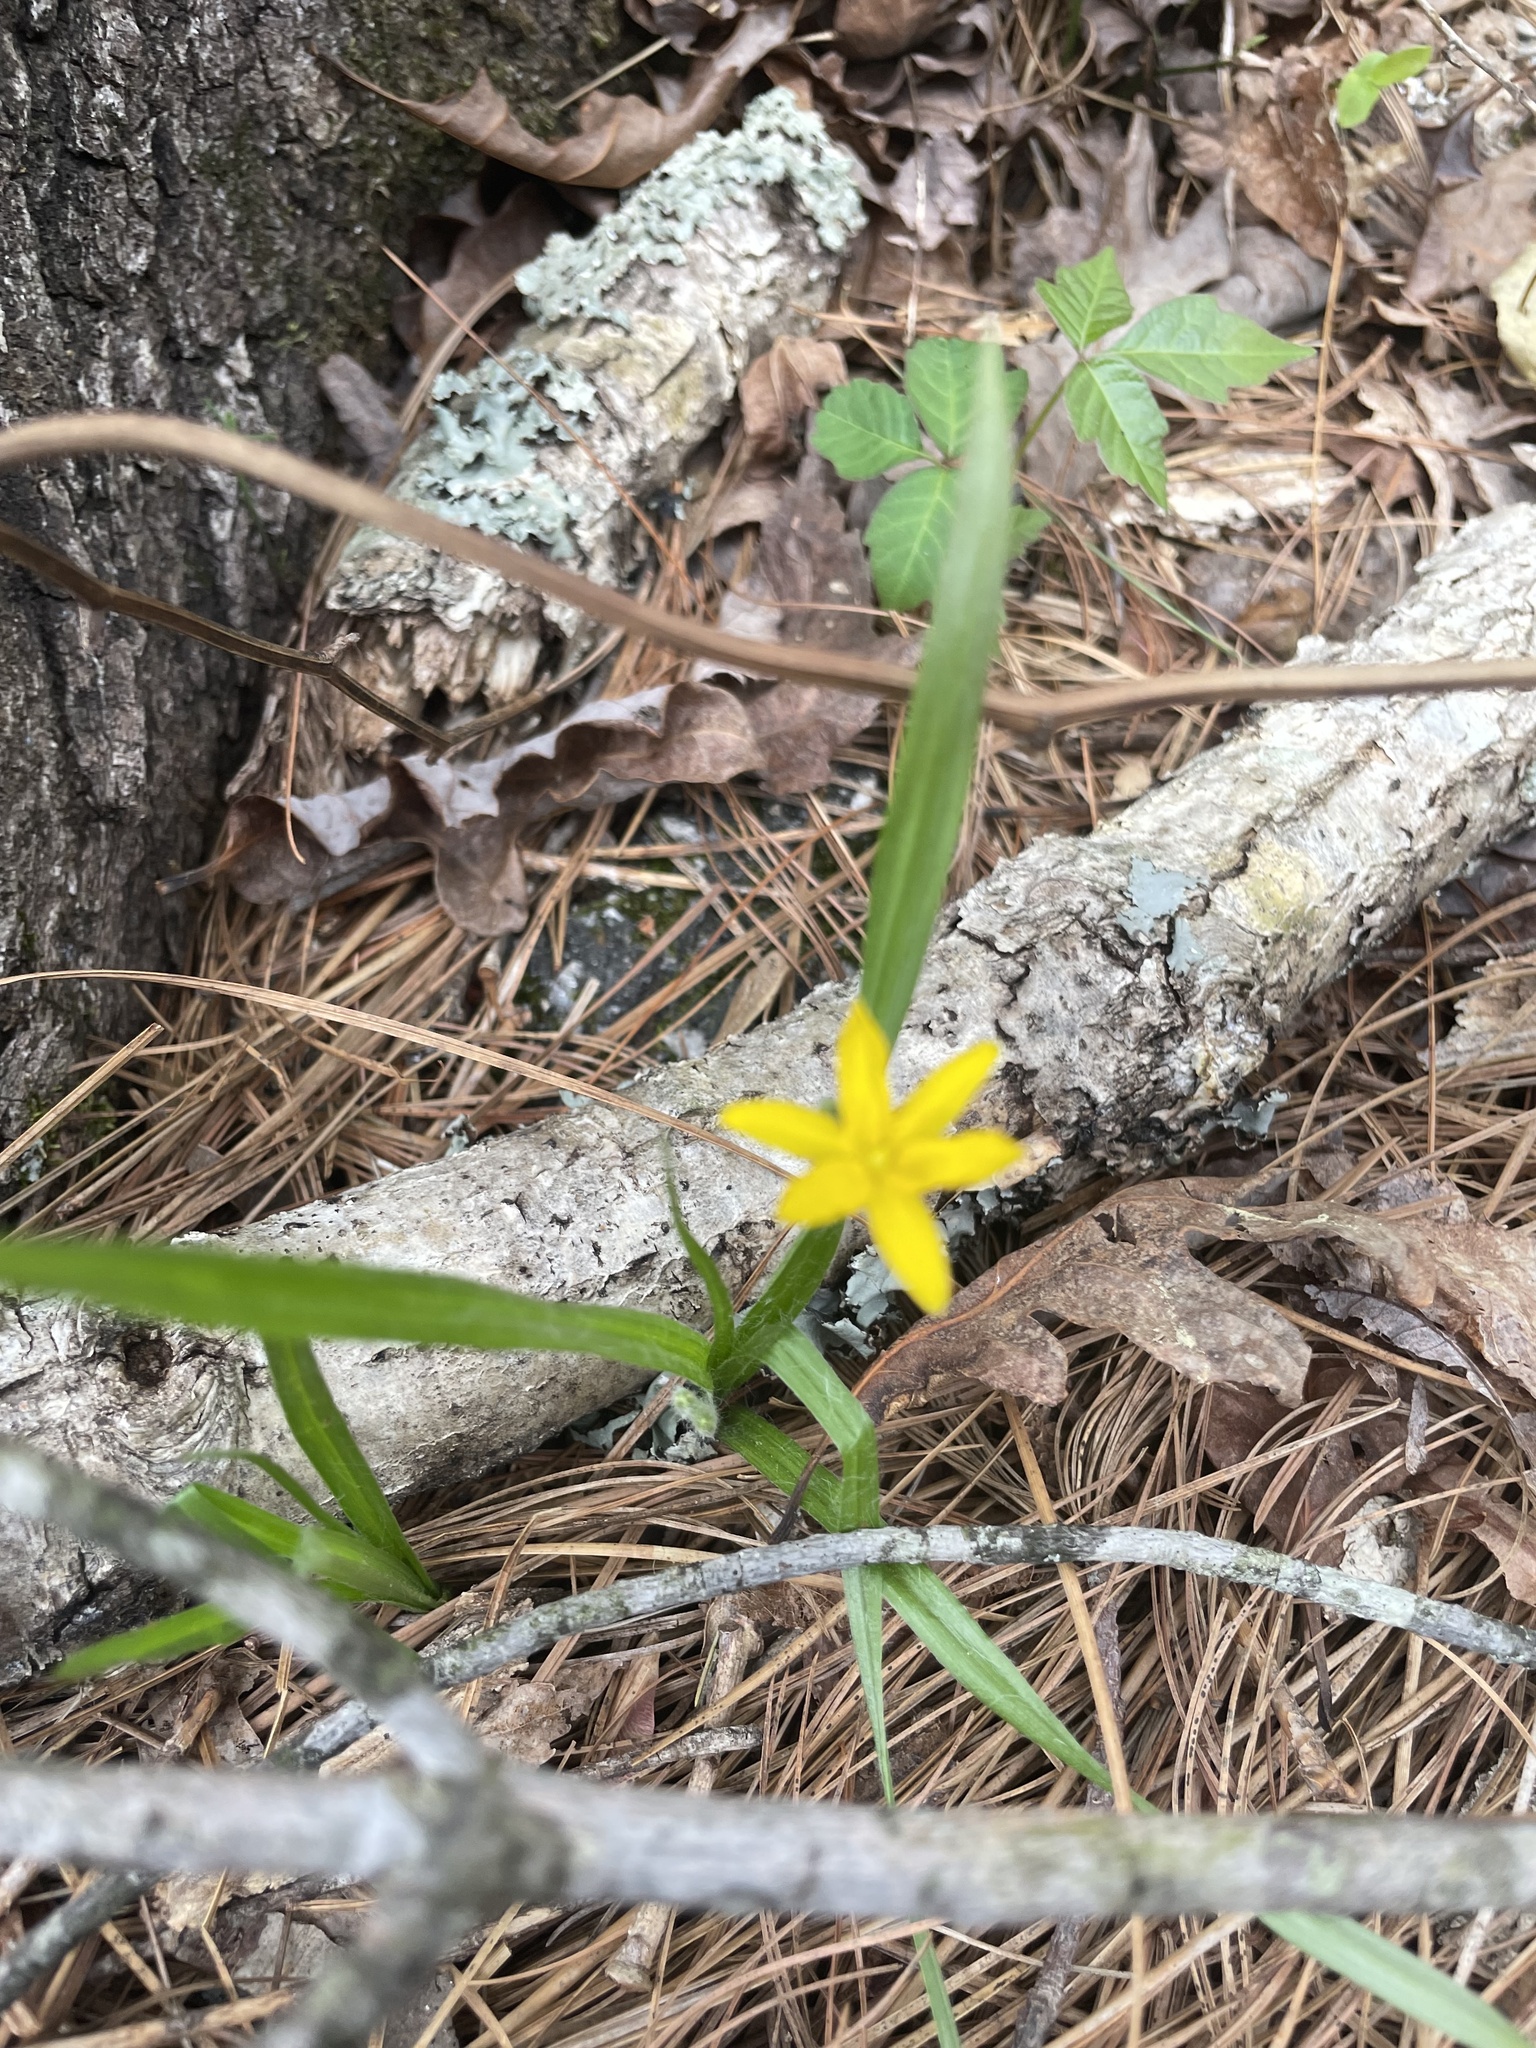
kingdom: Plantae
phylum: Tracheophyta
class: Liliopsida
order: Asparagales
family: Hypoxidaceae
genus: Hypoxis
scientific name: Hypoxis hirsuta
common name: Common goldstar
